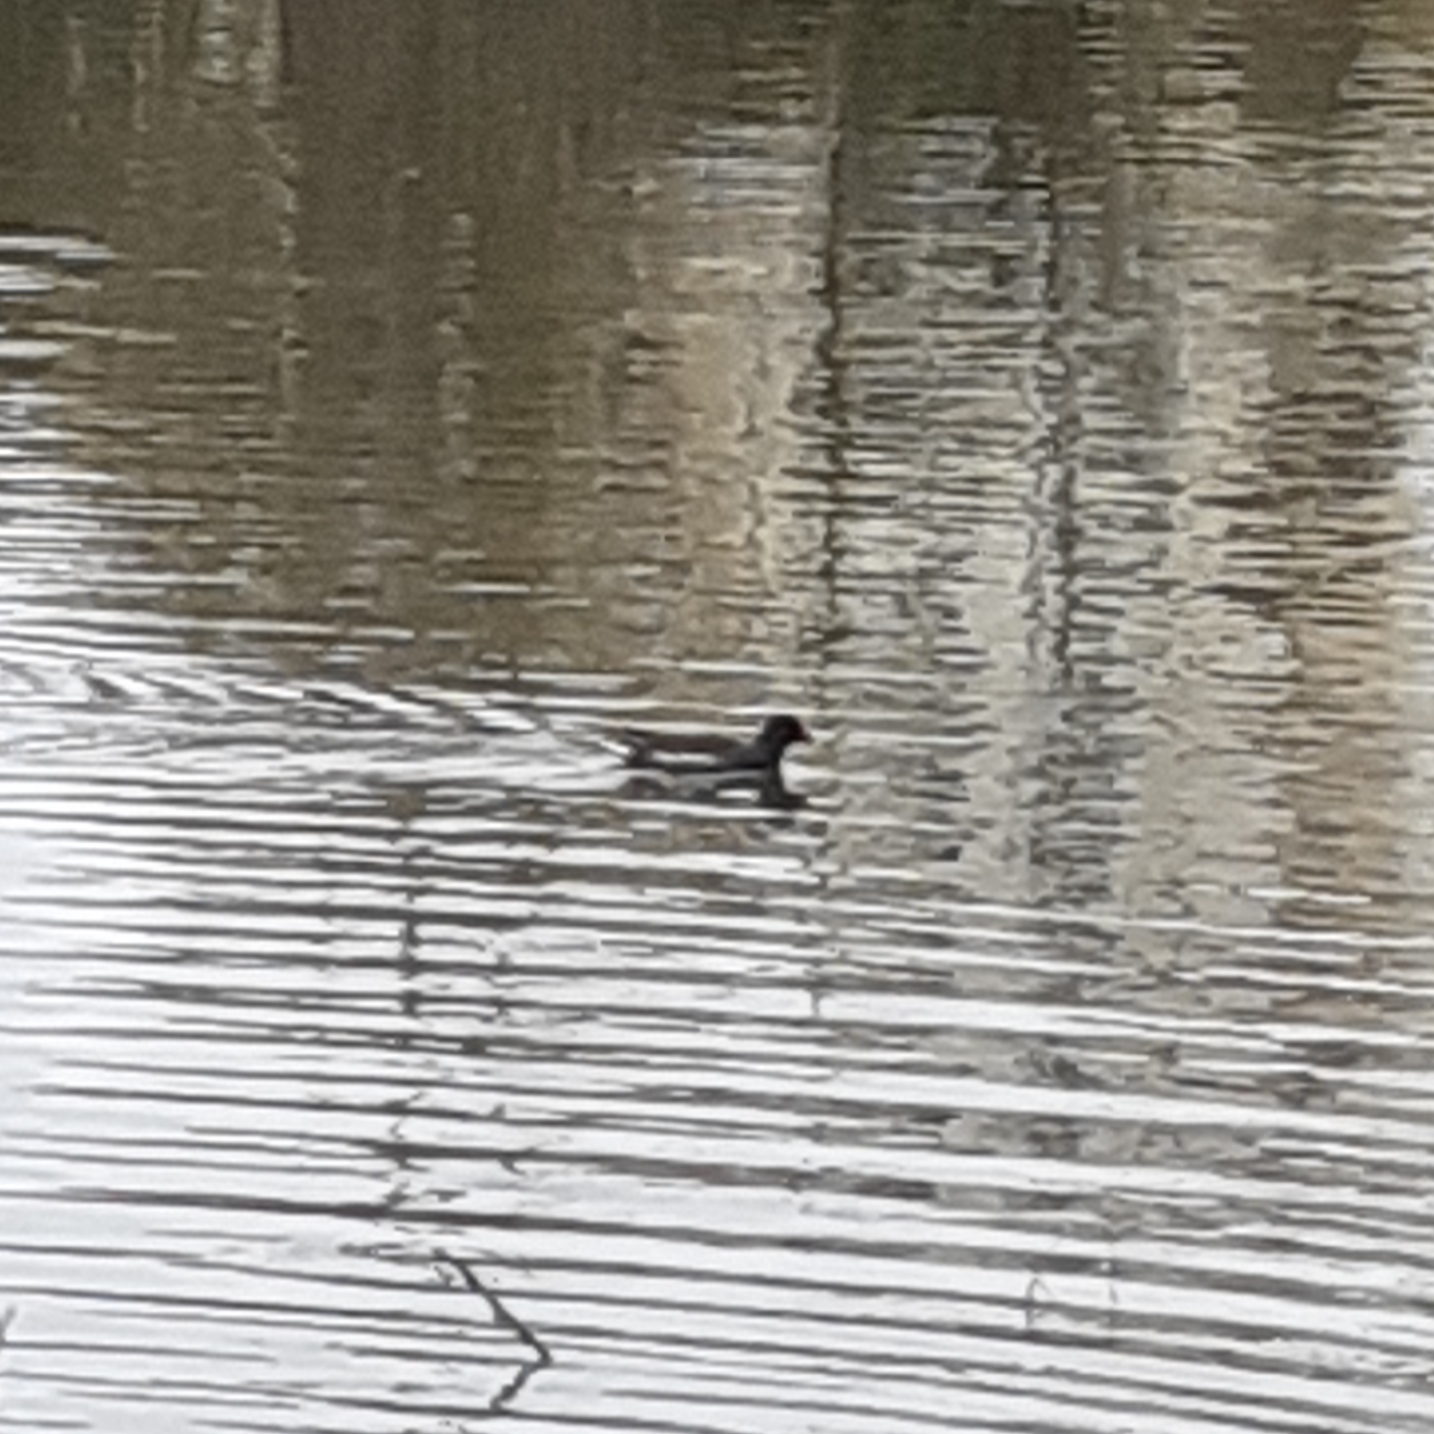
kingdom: Animalia
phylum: Chordata
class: Aves
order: Gruiformes
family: Rallidae
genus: Gallinula
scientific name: Gallinula chloropus
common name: Common moorhen
